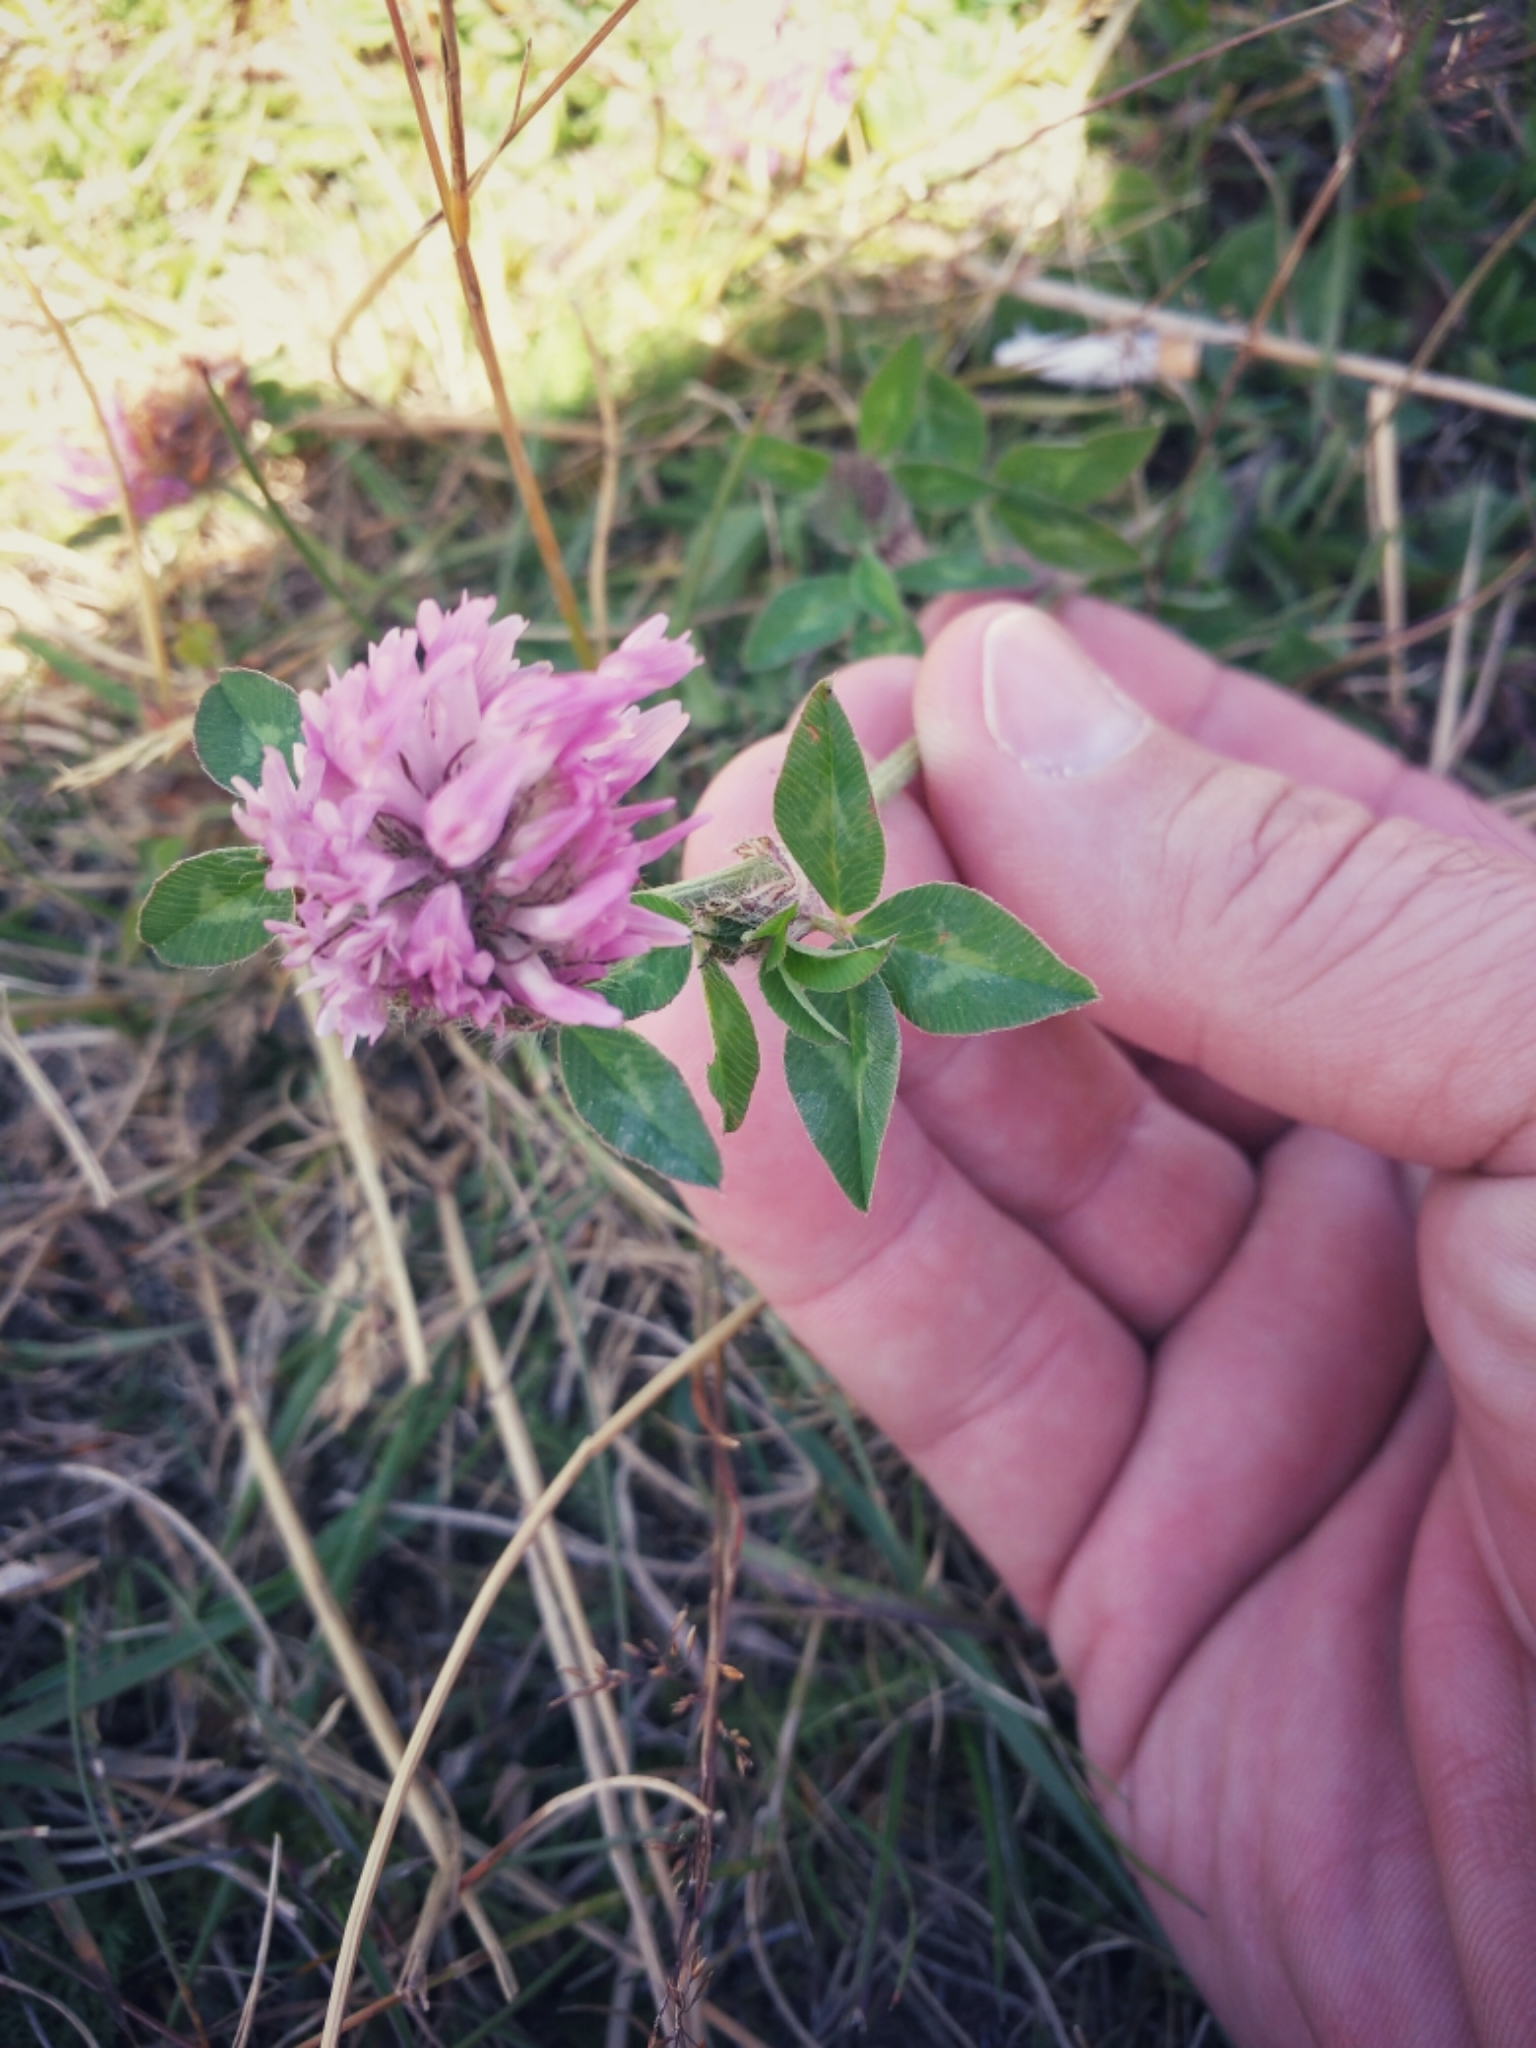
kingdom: Plantae
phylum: Tracheophyta
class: Magnoliopsida
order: Fabales
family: Fabaceae
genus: Trifolium
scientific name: Trifolium pratense
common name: Red clover
